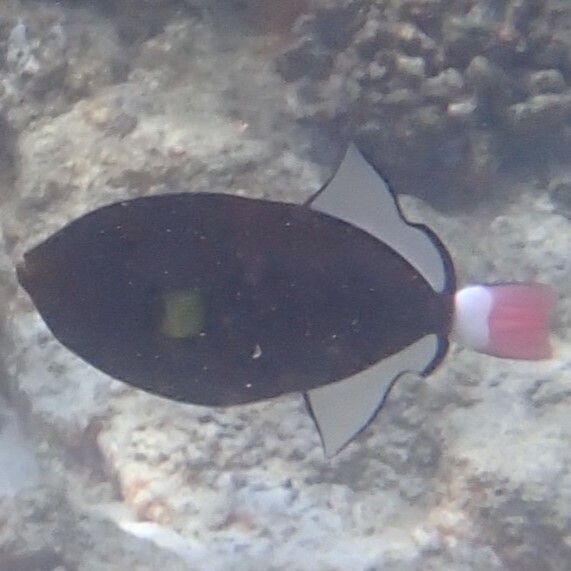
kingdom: Animalia
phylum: Chordata
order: Tetraodontiformes
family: Balistidae
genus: Melichthys
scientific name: Melichthys vidua
